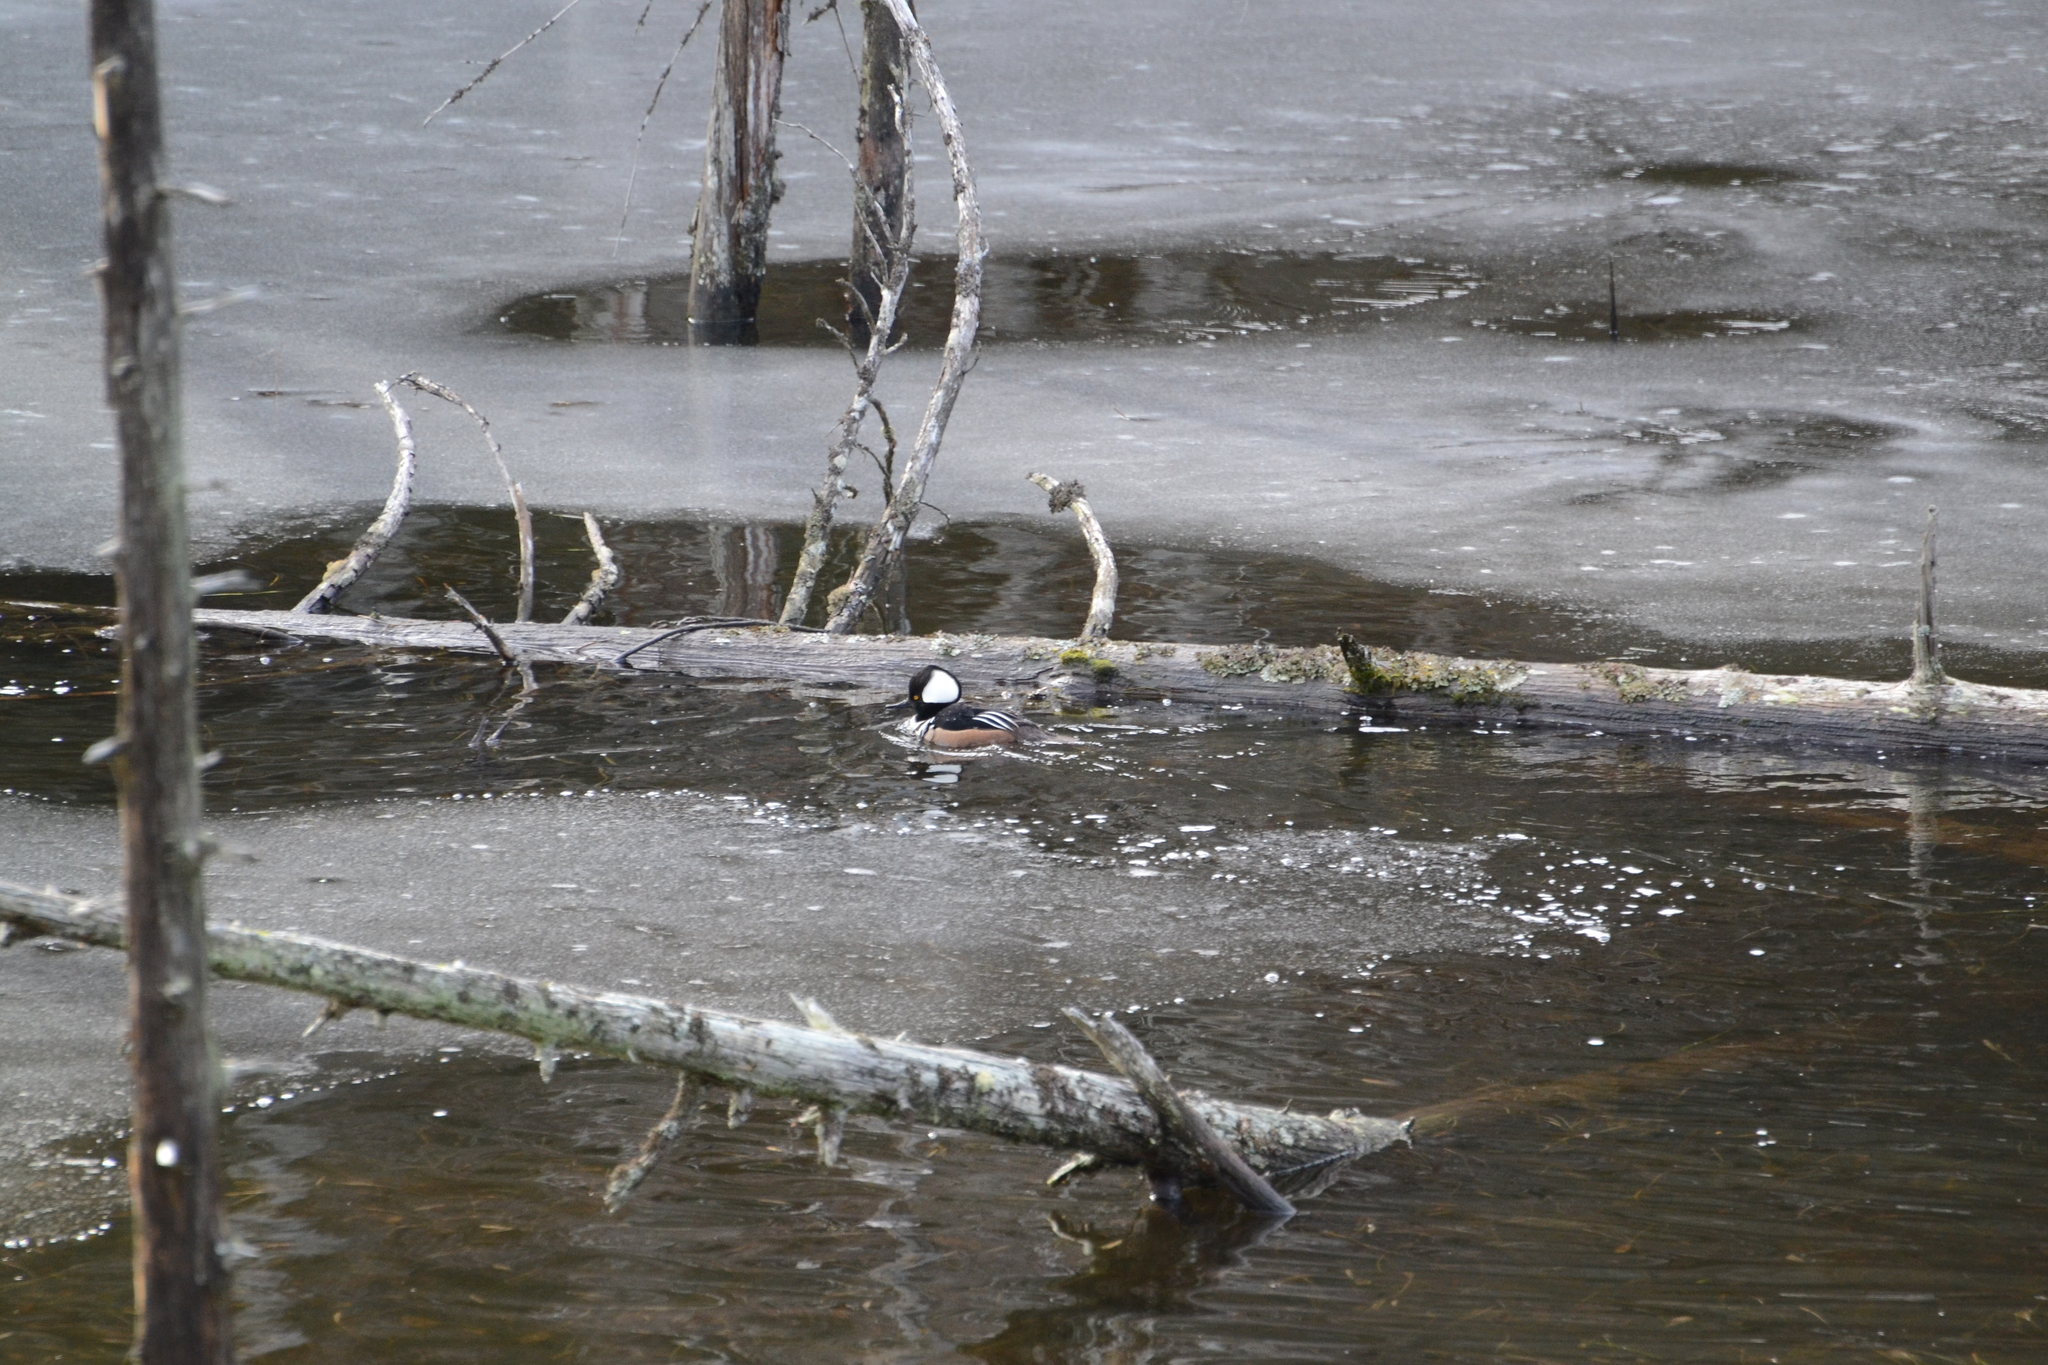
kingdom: Animalia
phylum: Chordata
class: Aves
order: Anseriformes
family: Anatidae
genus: Lophodytes
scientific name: Lophodytes cucullatus
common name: Hooded merganser
